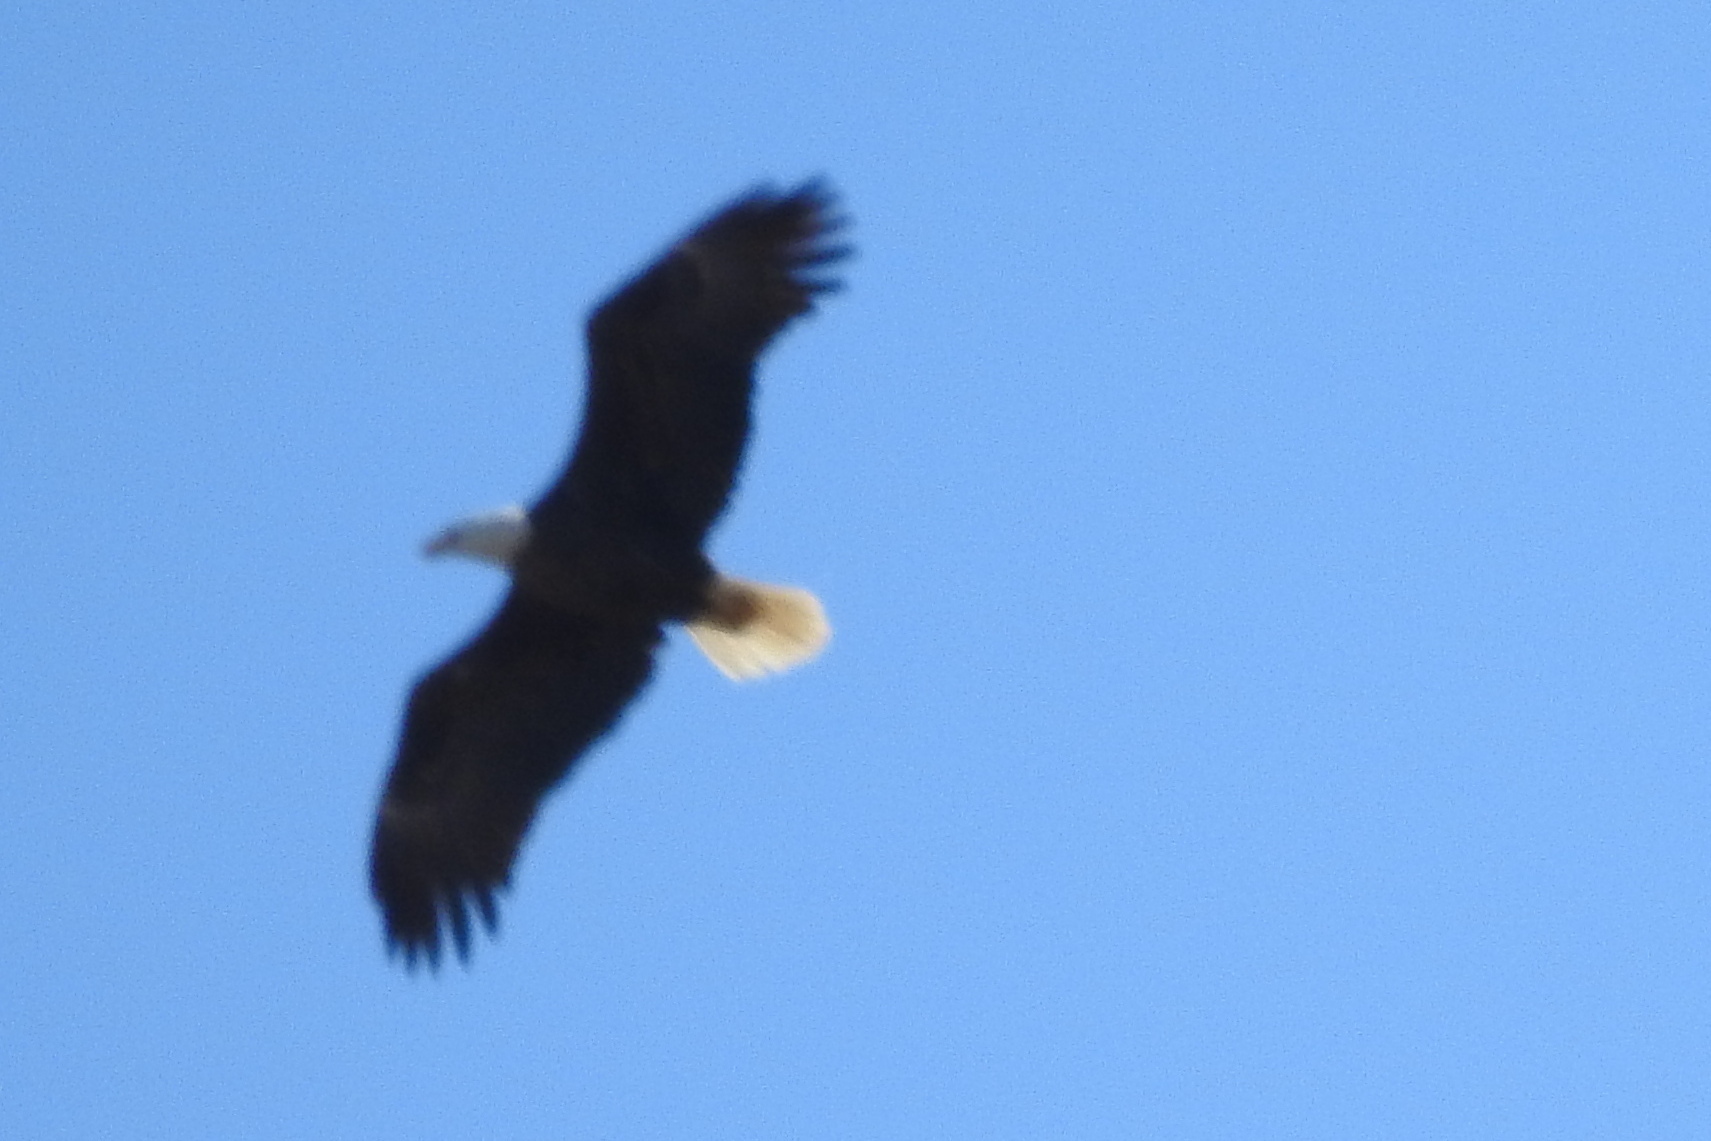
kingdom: Animalia
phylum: Chordata
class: Aves
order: Accipitriformes
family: Accipitridae
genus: Haliaeetus
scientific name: Haliaeetus leucocephalus
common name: Bald eagle
